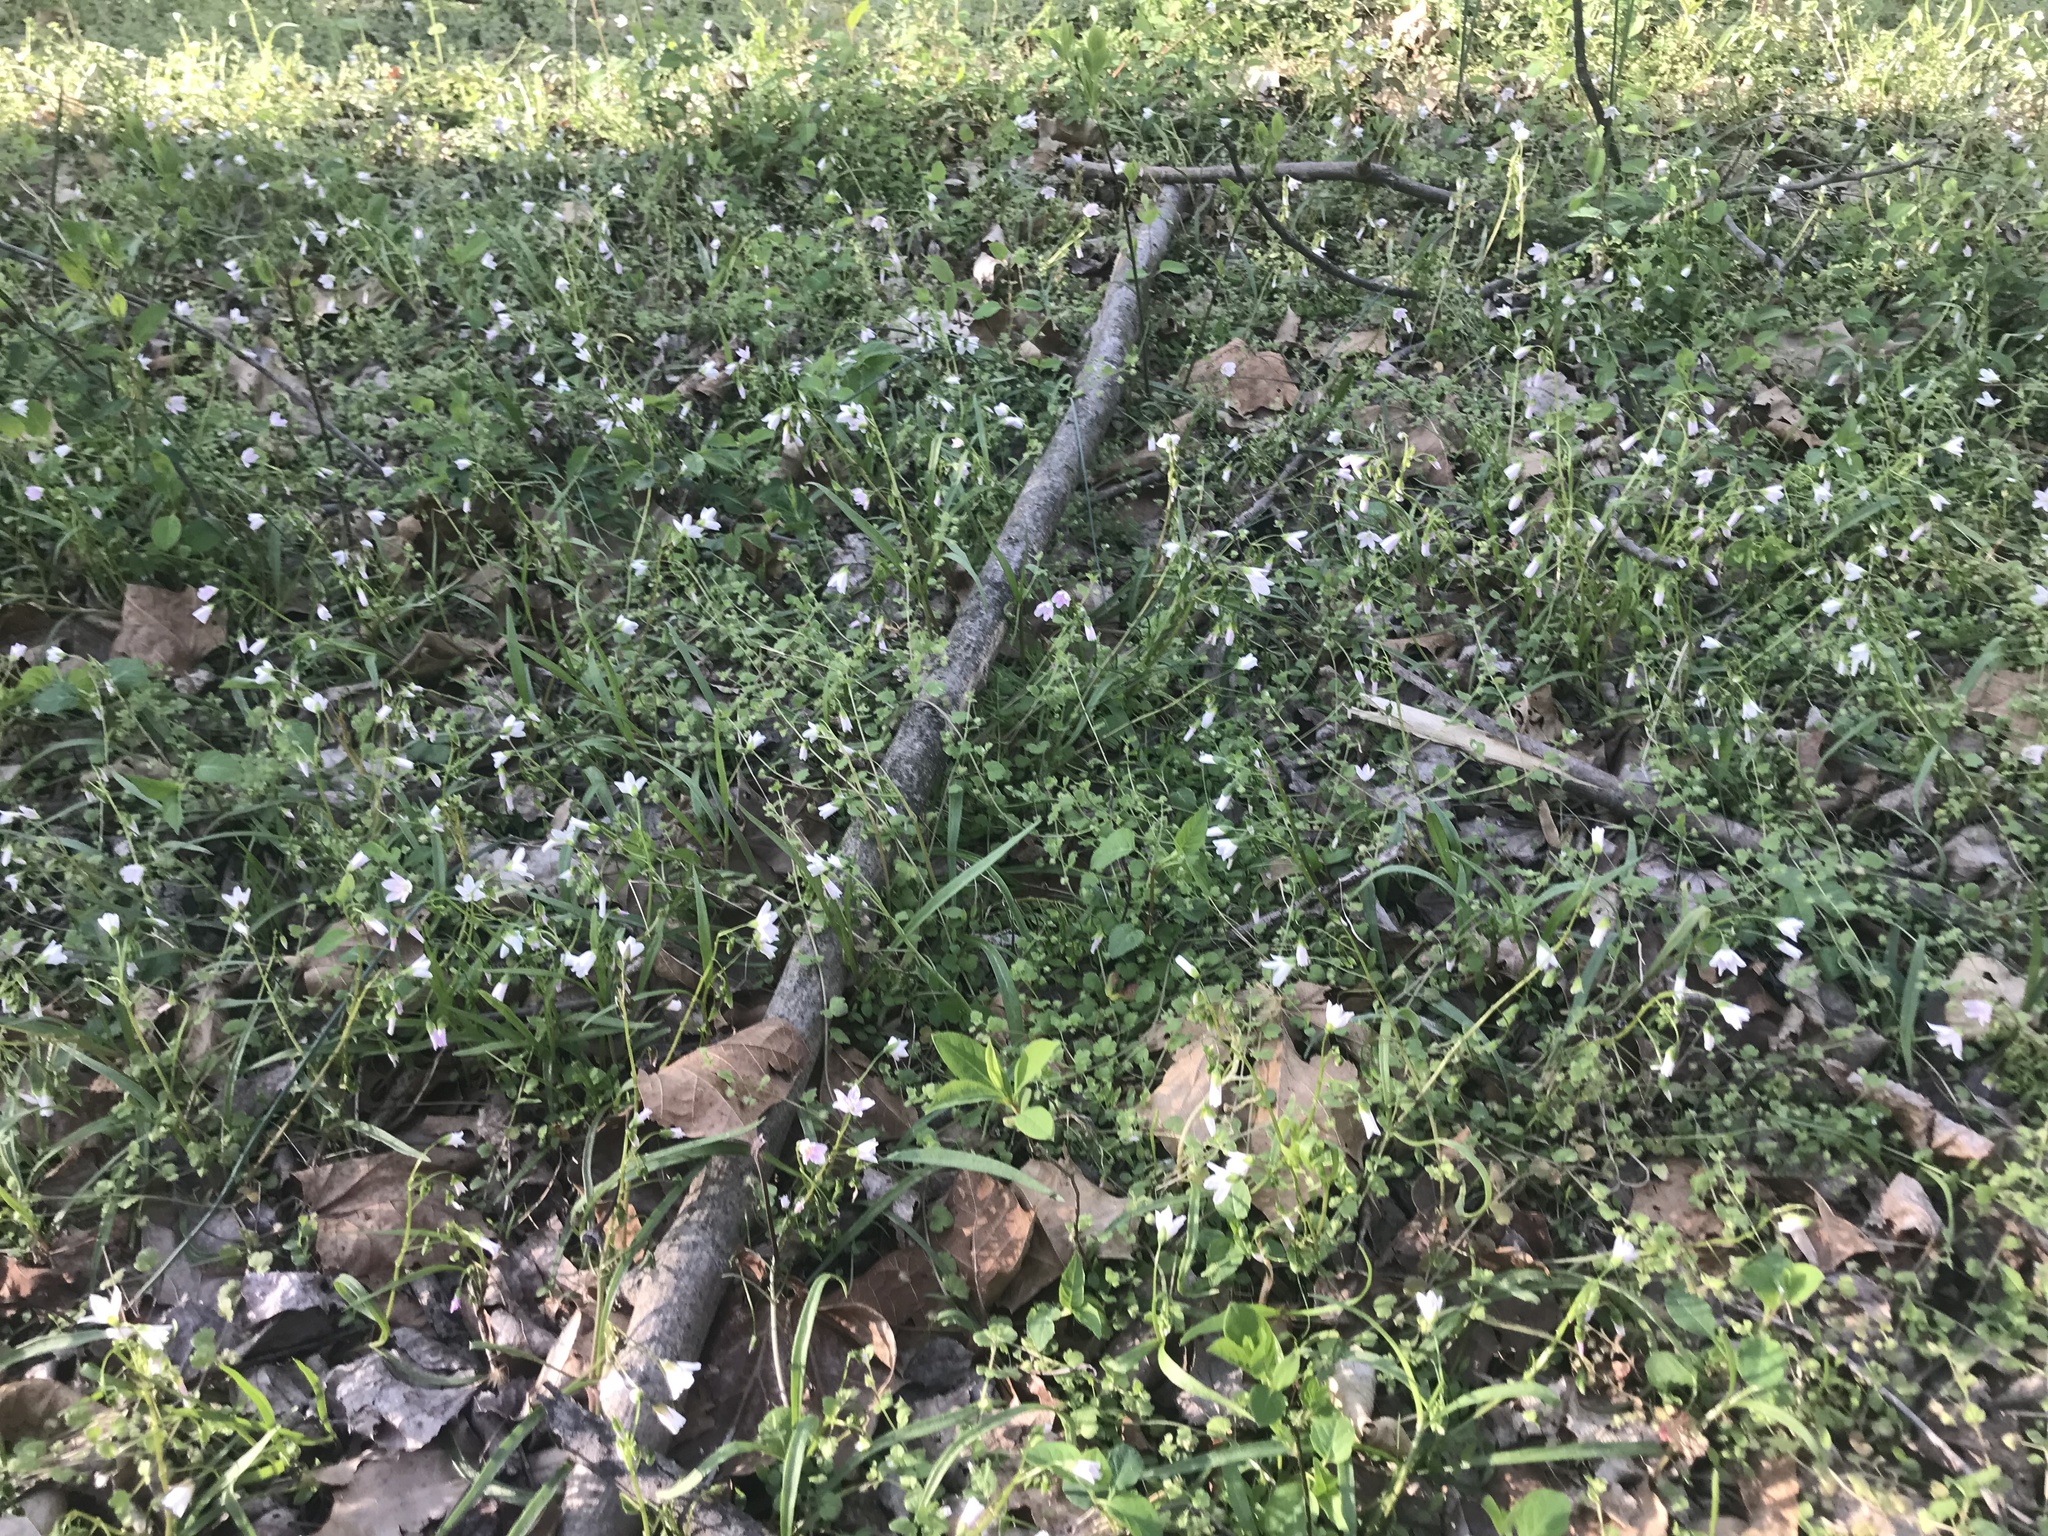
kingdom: Plantae
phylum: Tracheophyta
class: Magnoliopsida
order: Caryophyllales
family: Montiaceae
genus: Claytonia
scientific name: Claytonia virginica
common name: Virginia springbeauty
